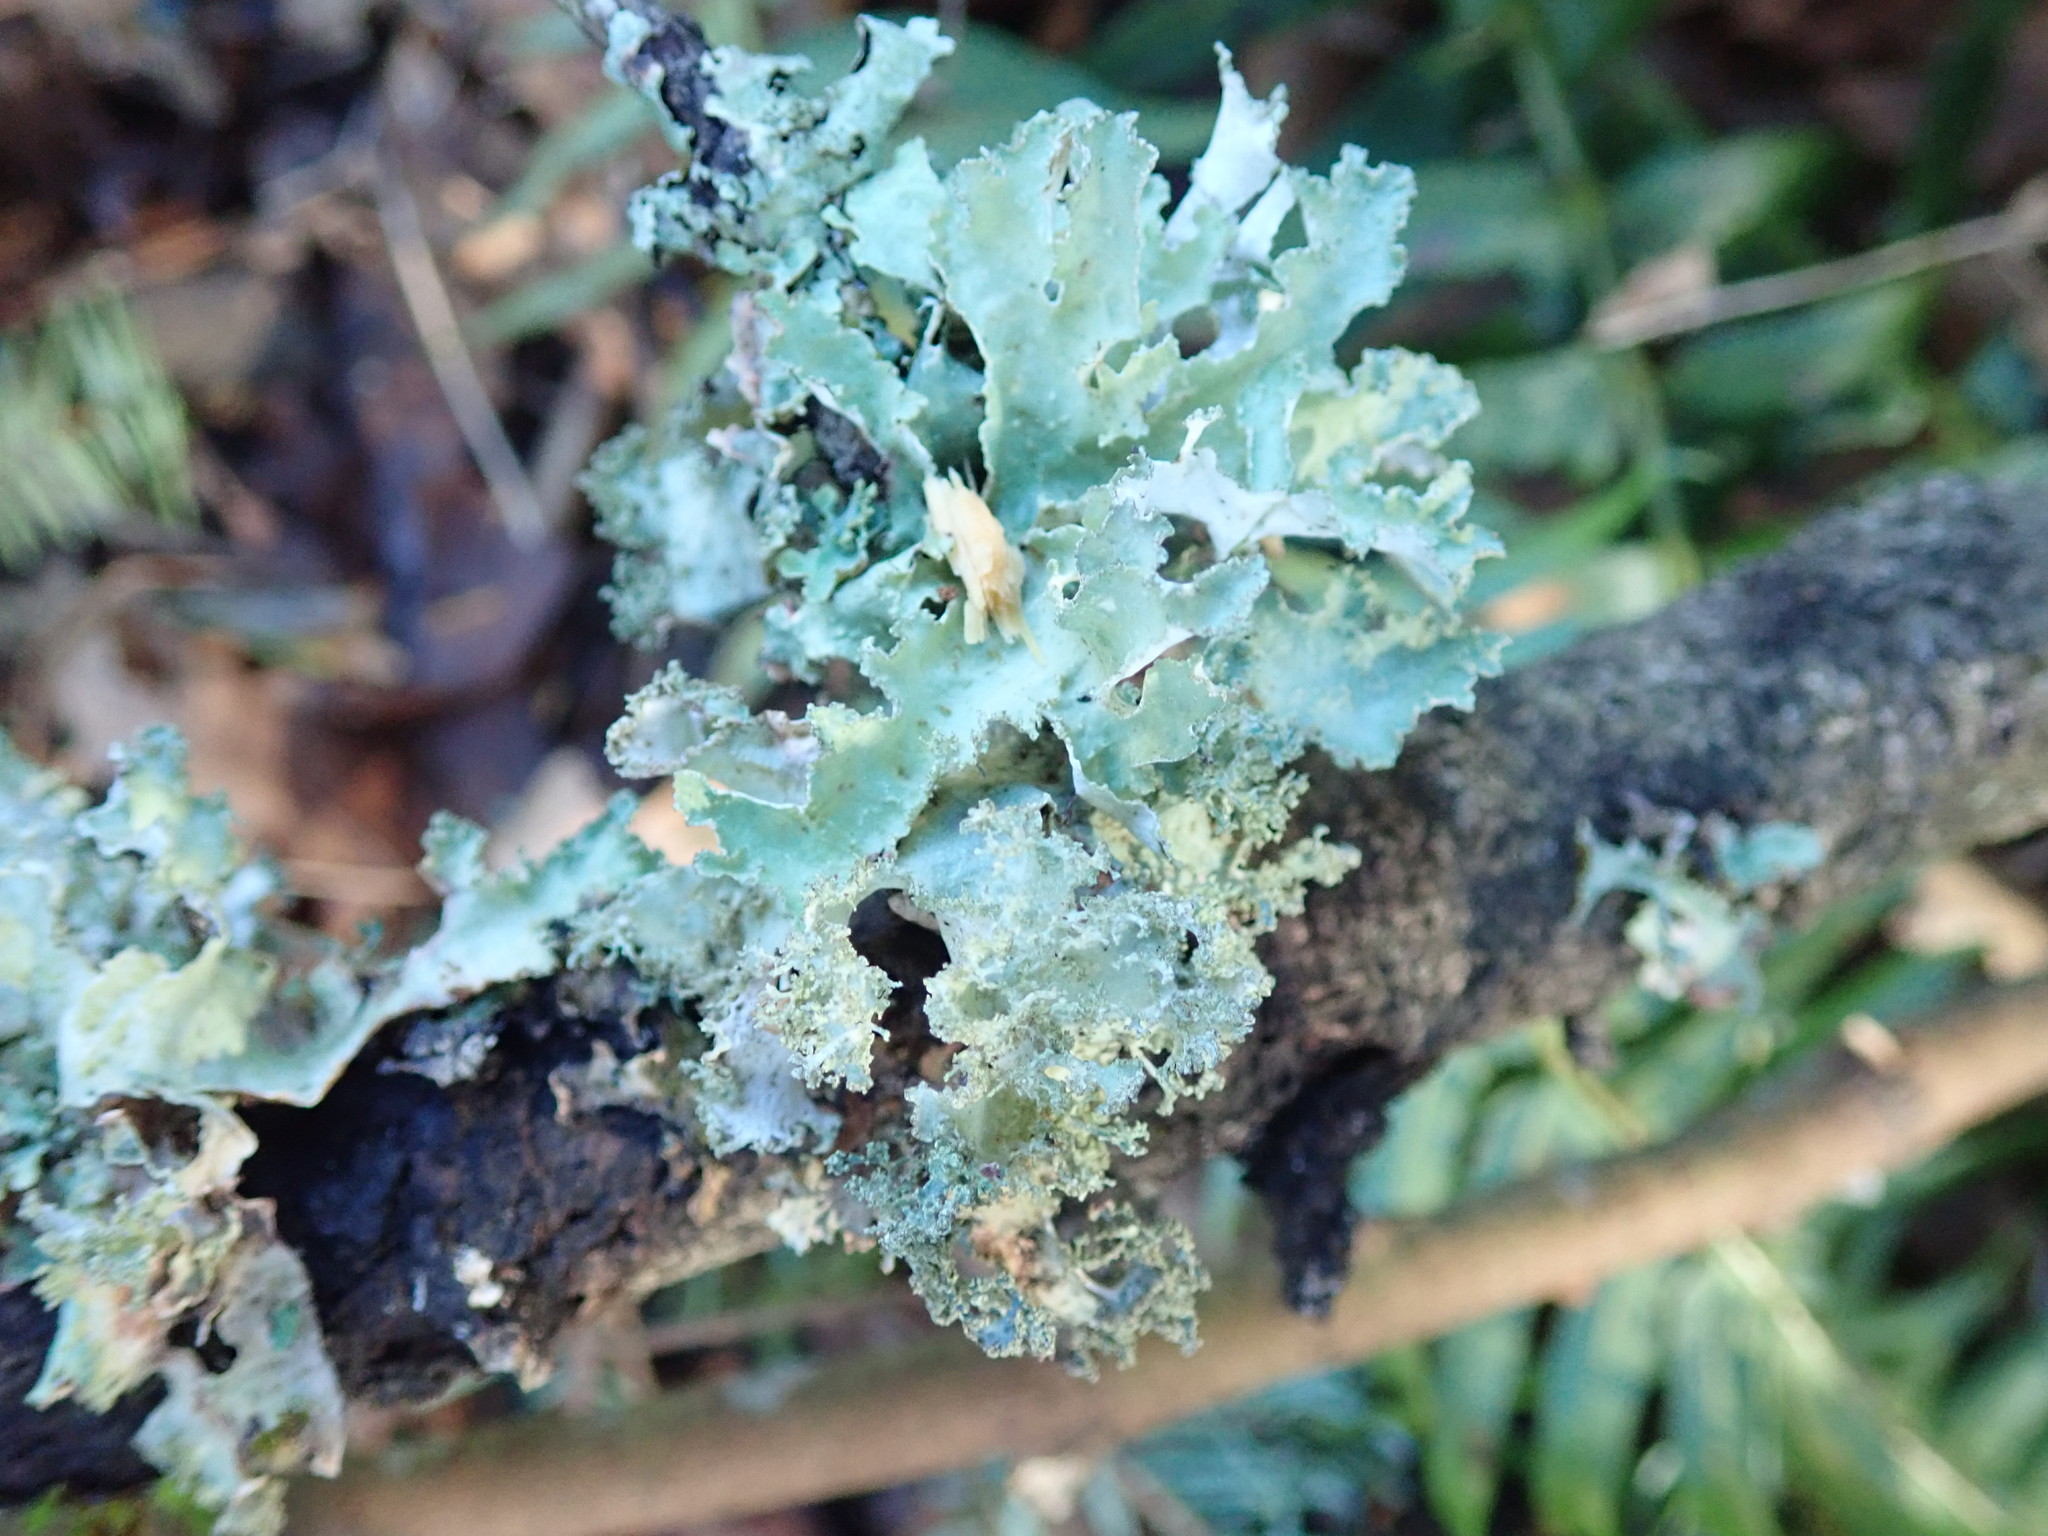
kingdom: Fungi
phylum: Ascomycota
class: Lecanoromycetes
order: Lecanorales
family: Parmeliaceae
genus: Platismatia
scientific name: Platismatia glauca
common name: Varied rag lichen
